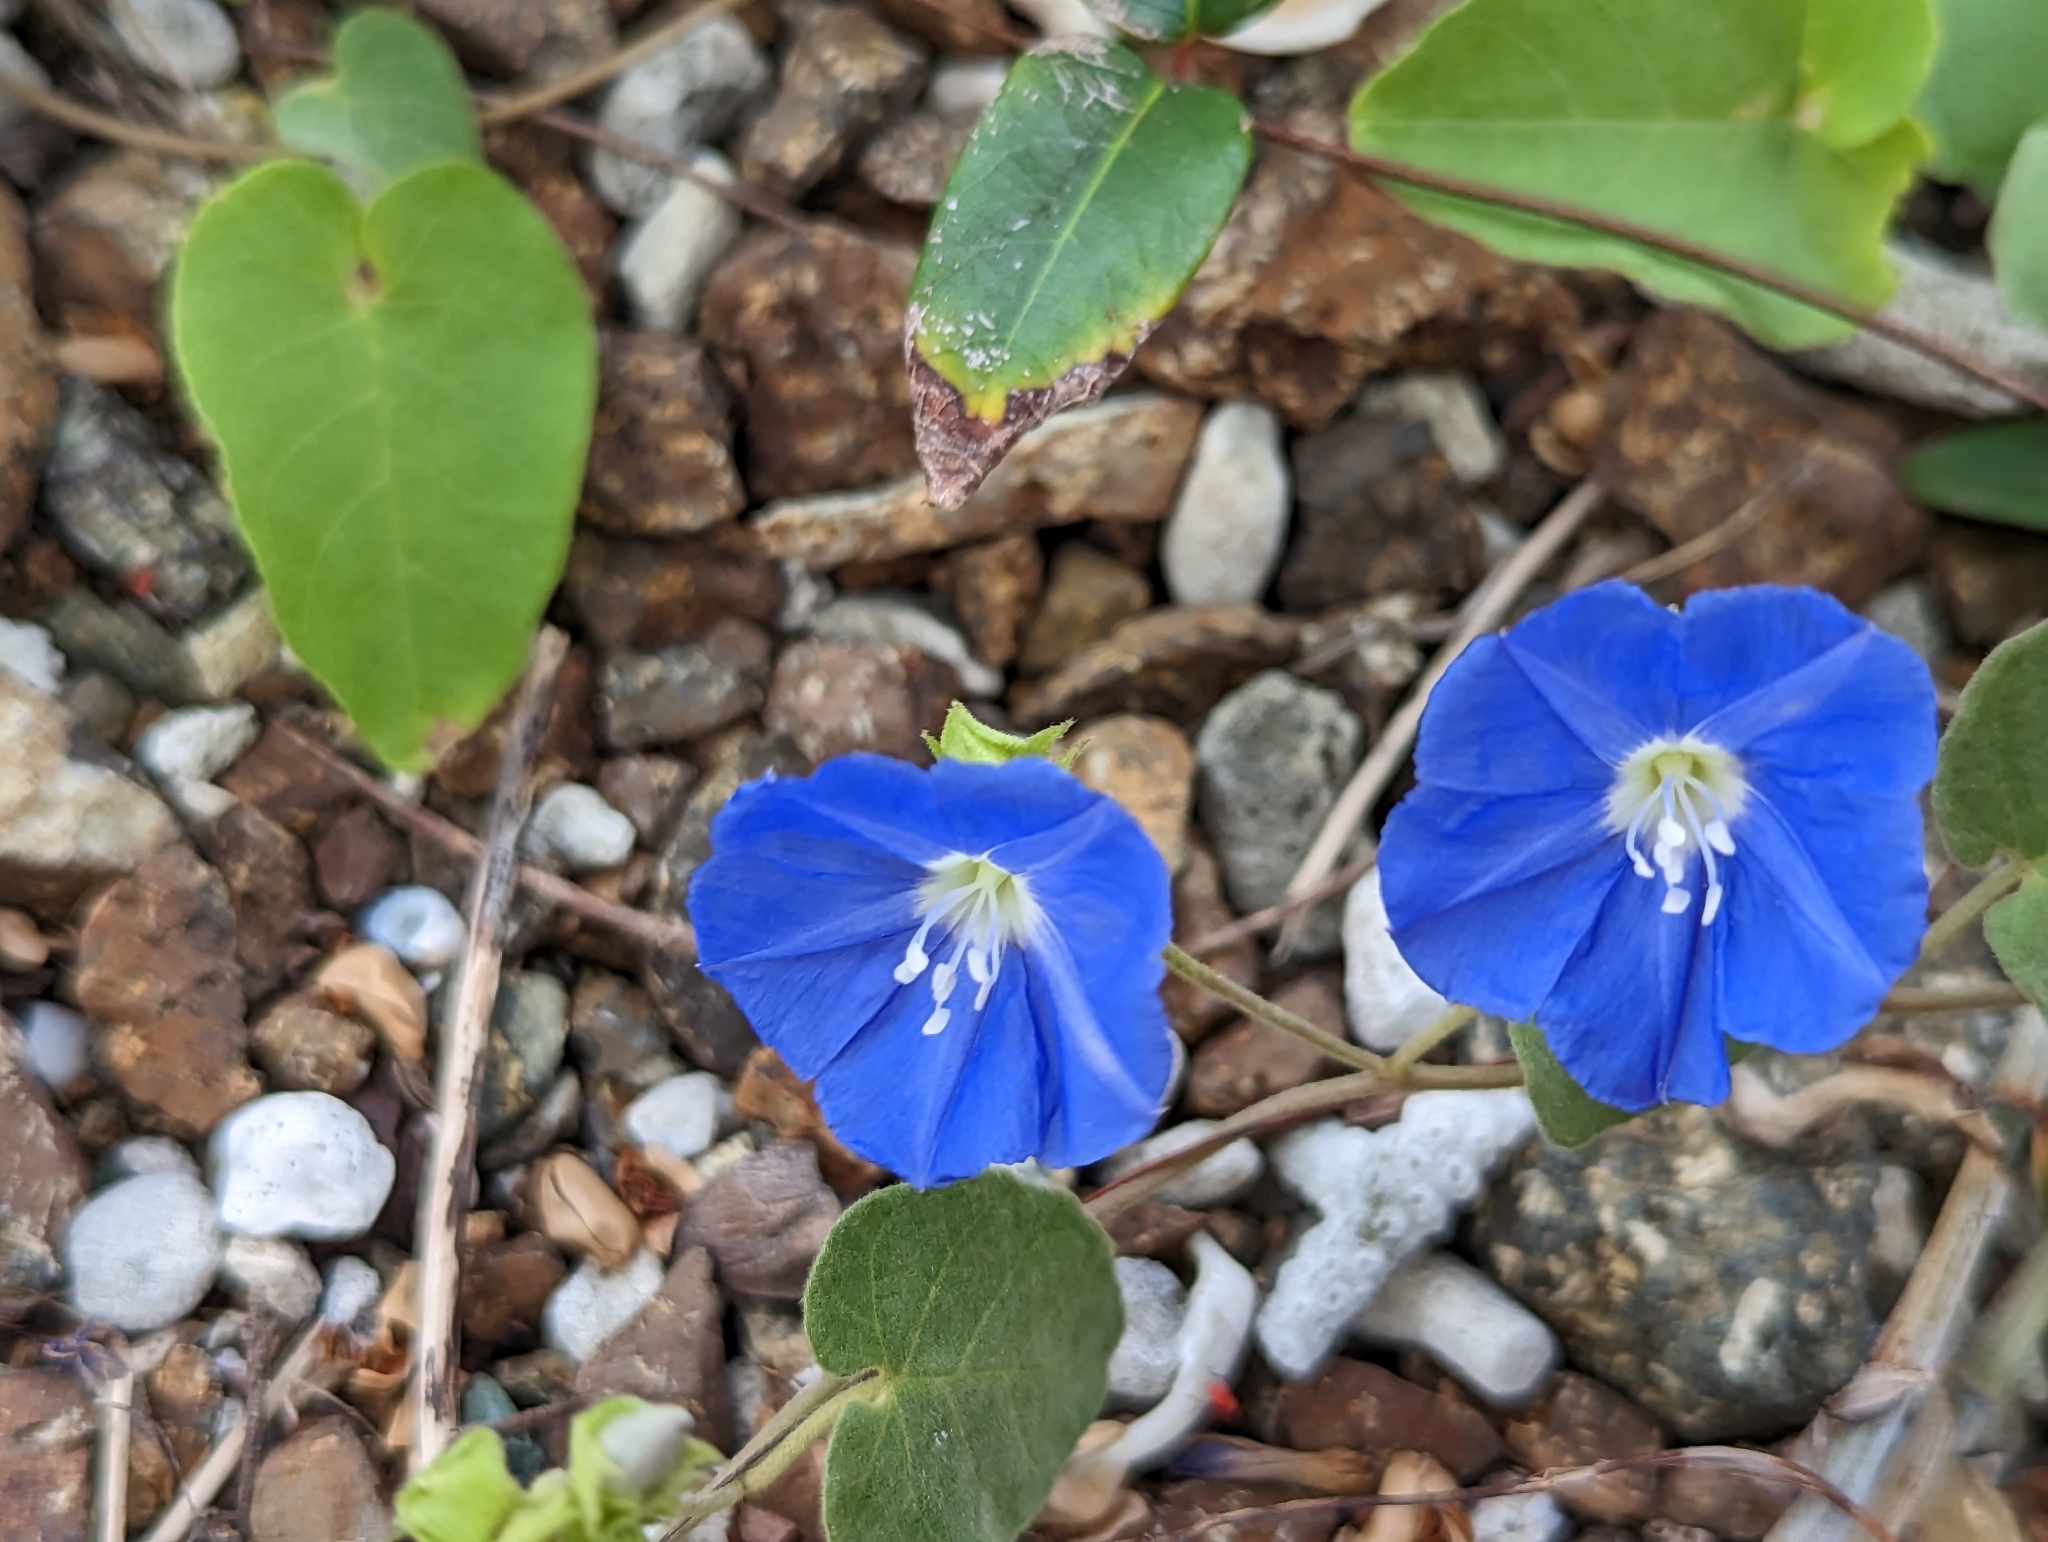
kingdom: Plantae
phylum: Tracheophyta
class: Magnoliopsida
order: Solanales
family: Convolvulaceae
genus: Jacquemontia
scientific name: Jacquemontia pentanthos
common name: Skyblue clustervine
